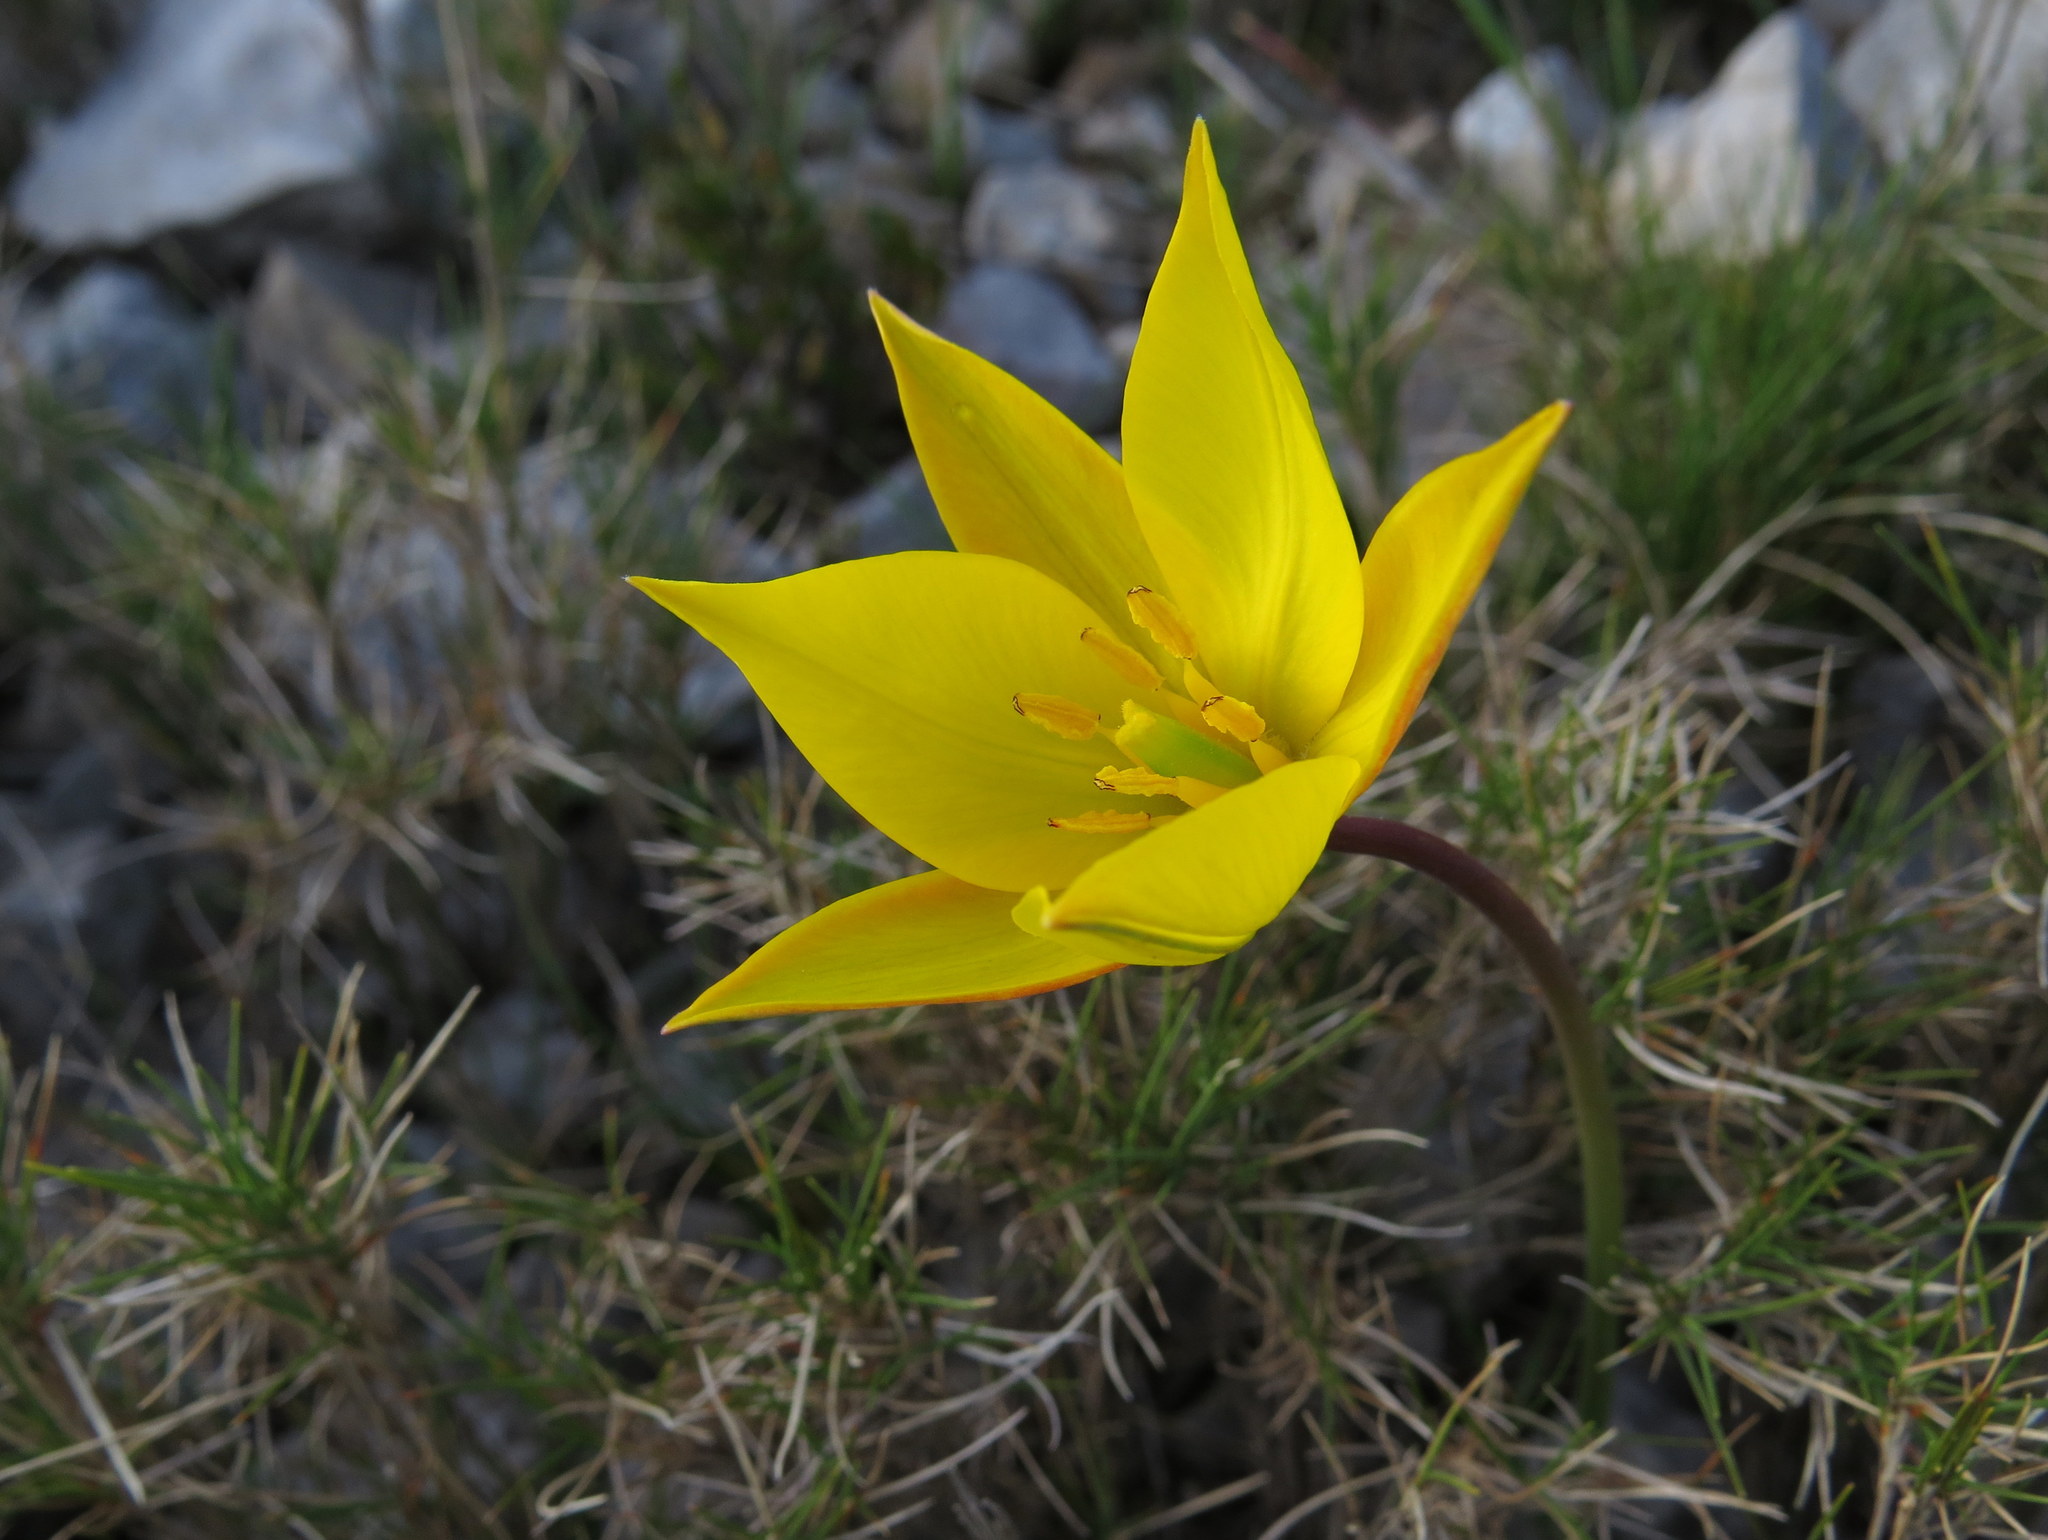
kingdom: Plantae
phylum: Tracheophyta
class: Liliopsida
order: Liliales
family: Liliaceae
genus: Tulipa
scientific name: Tulipa sylvestris
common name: Wild tulip
